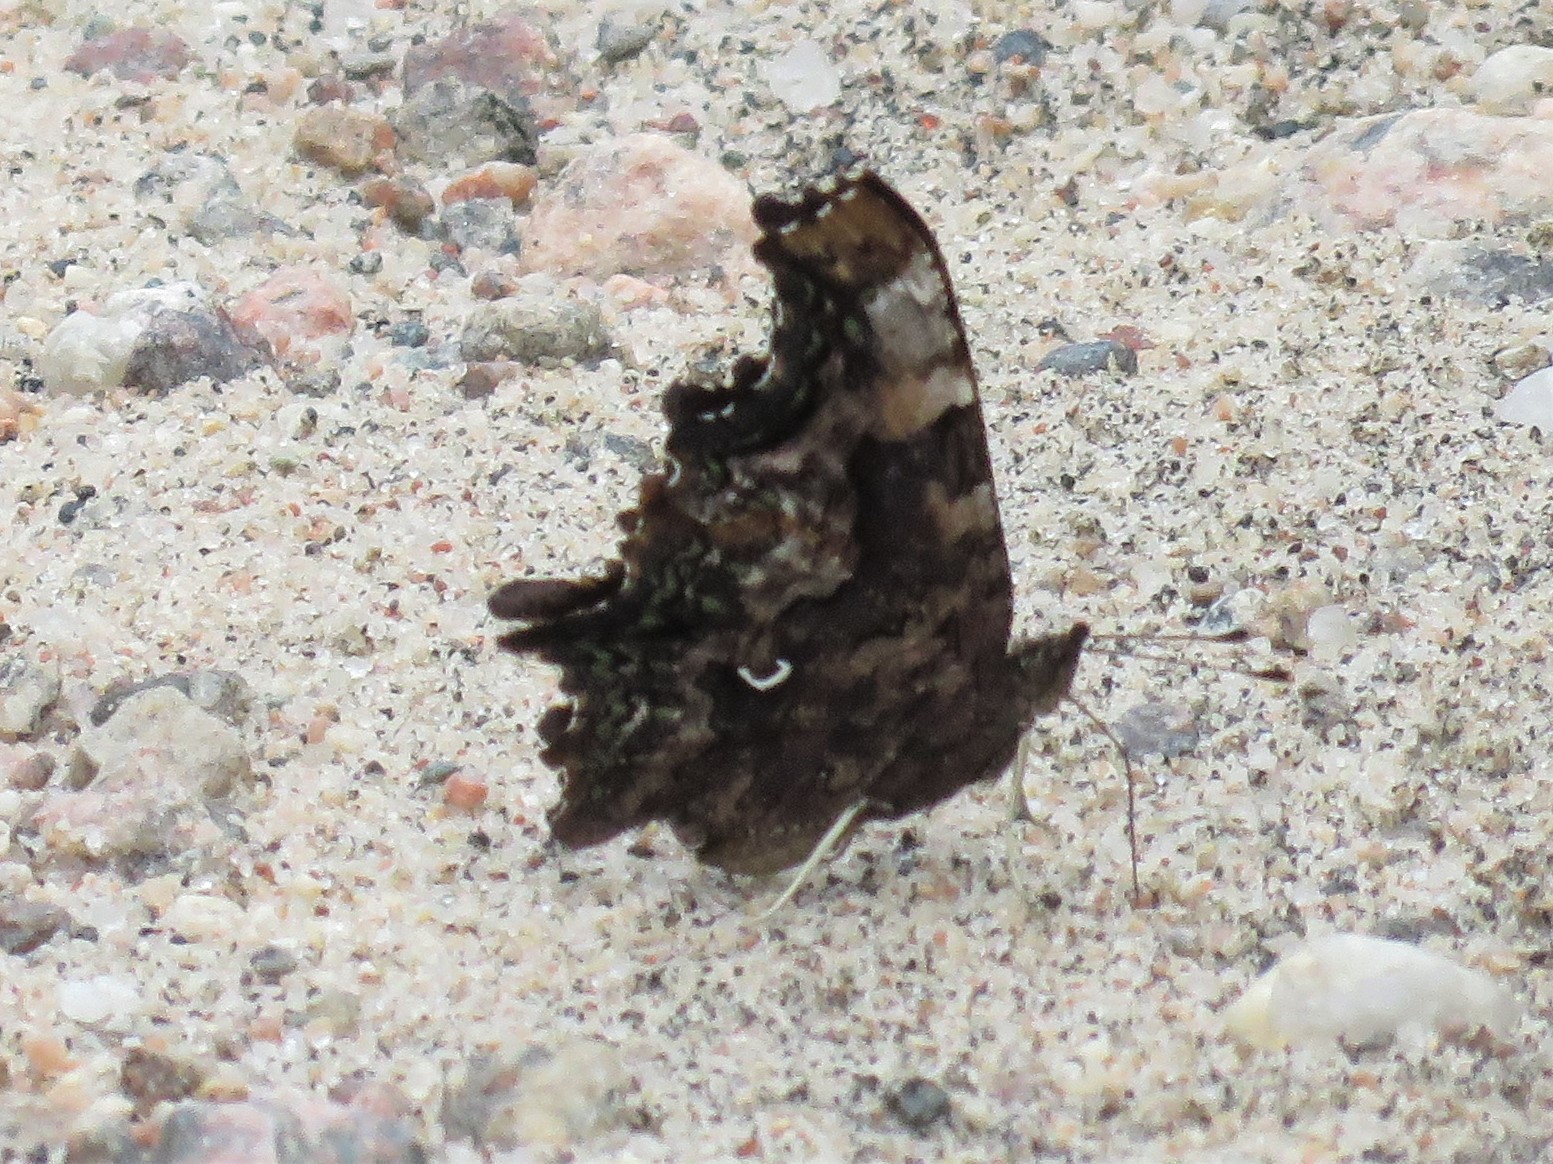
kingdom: Animalia
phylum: Arthropoda
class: Insecta
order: Lepidoptera
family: Nymphalidae
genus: Polygonia
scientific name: Polygonia faunus
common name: Green comma
